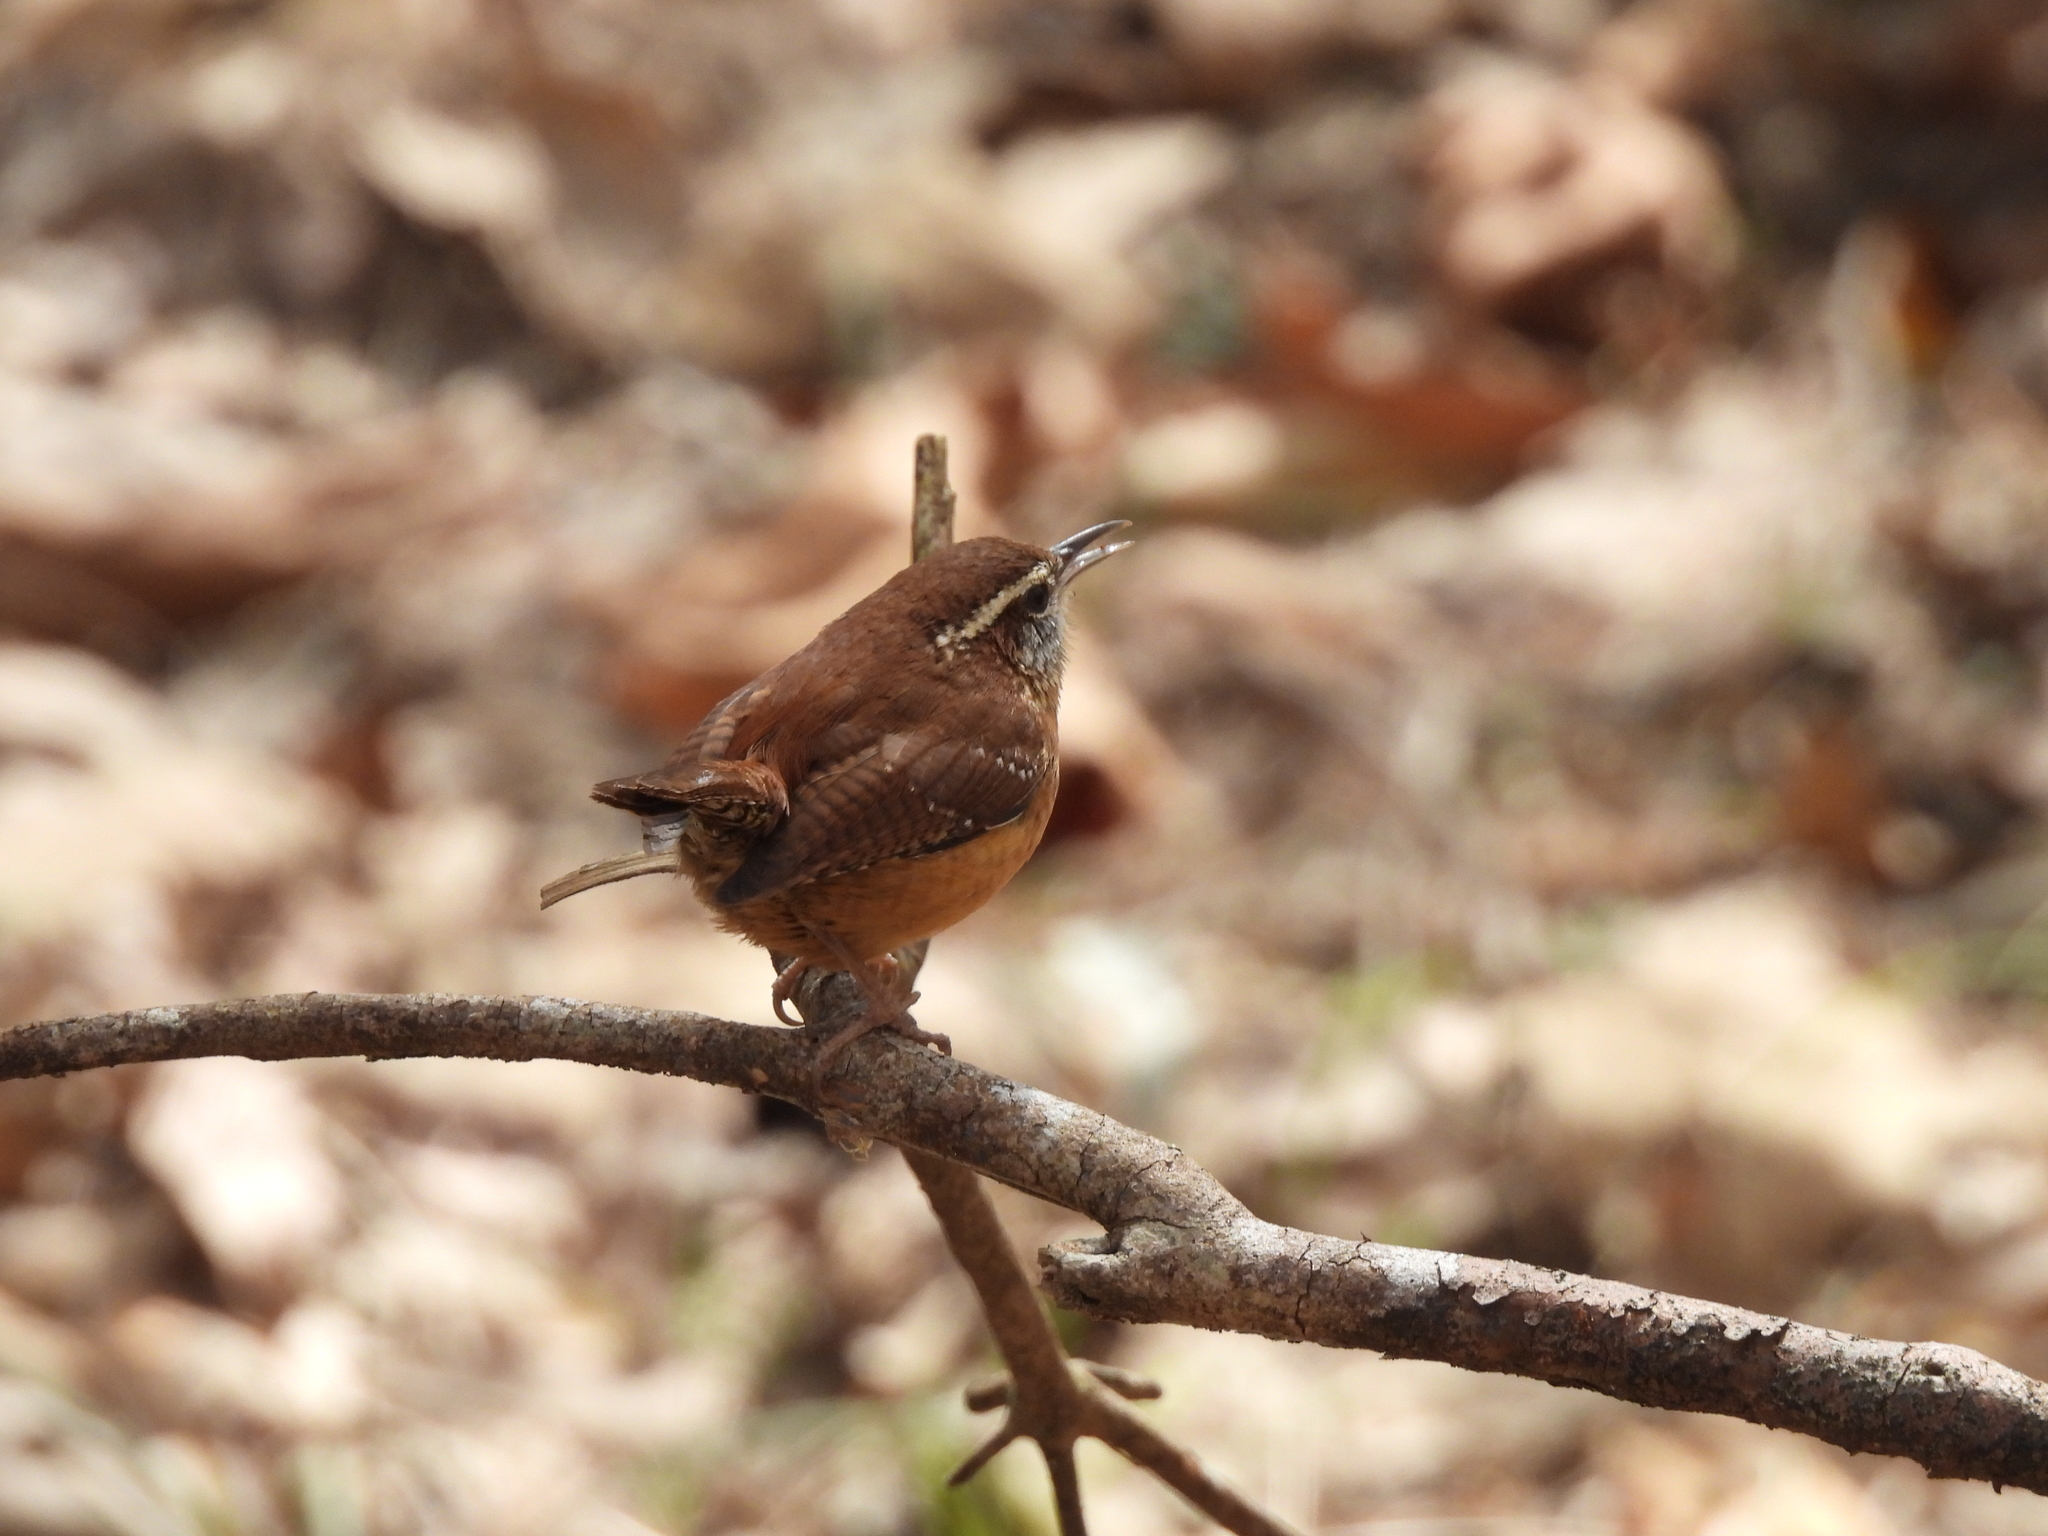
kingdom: Animalia
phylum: Chordata
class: Aves
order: Passeriformes
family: Troglodytidae
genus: Thryothorus
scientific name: Thryothorus ludovicianus
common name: Carolina wren
